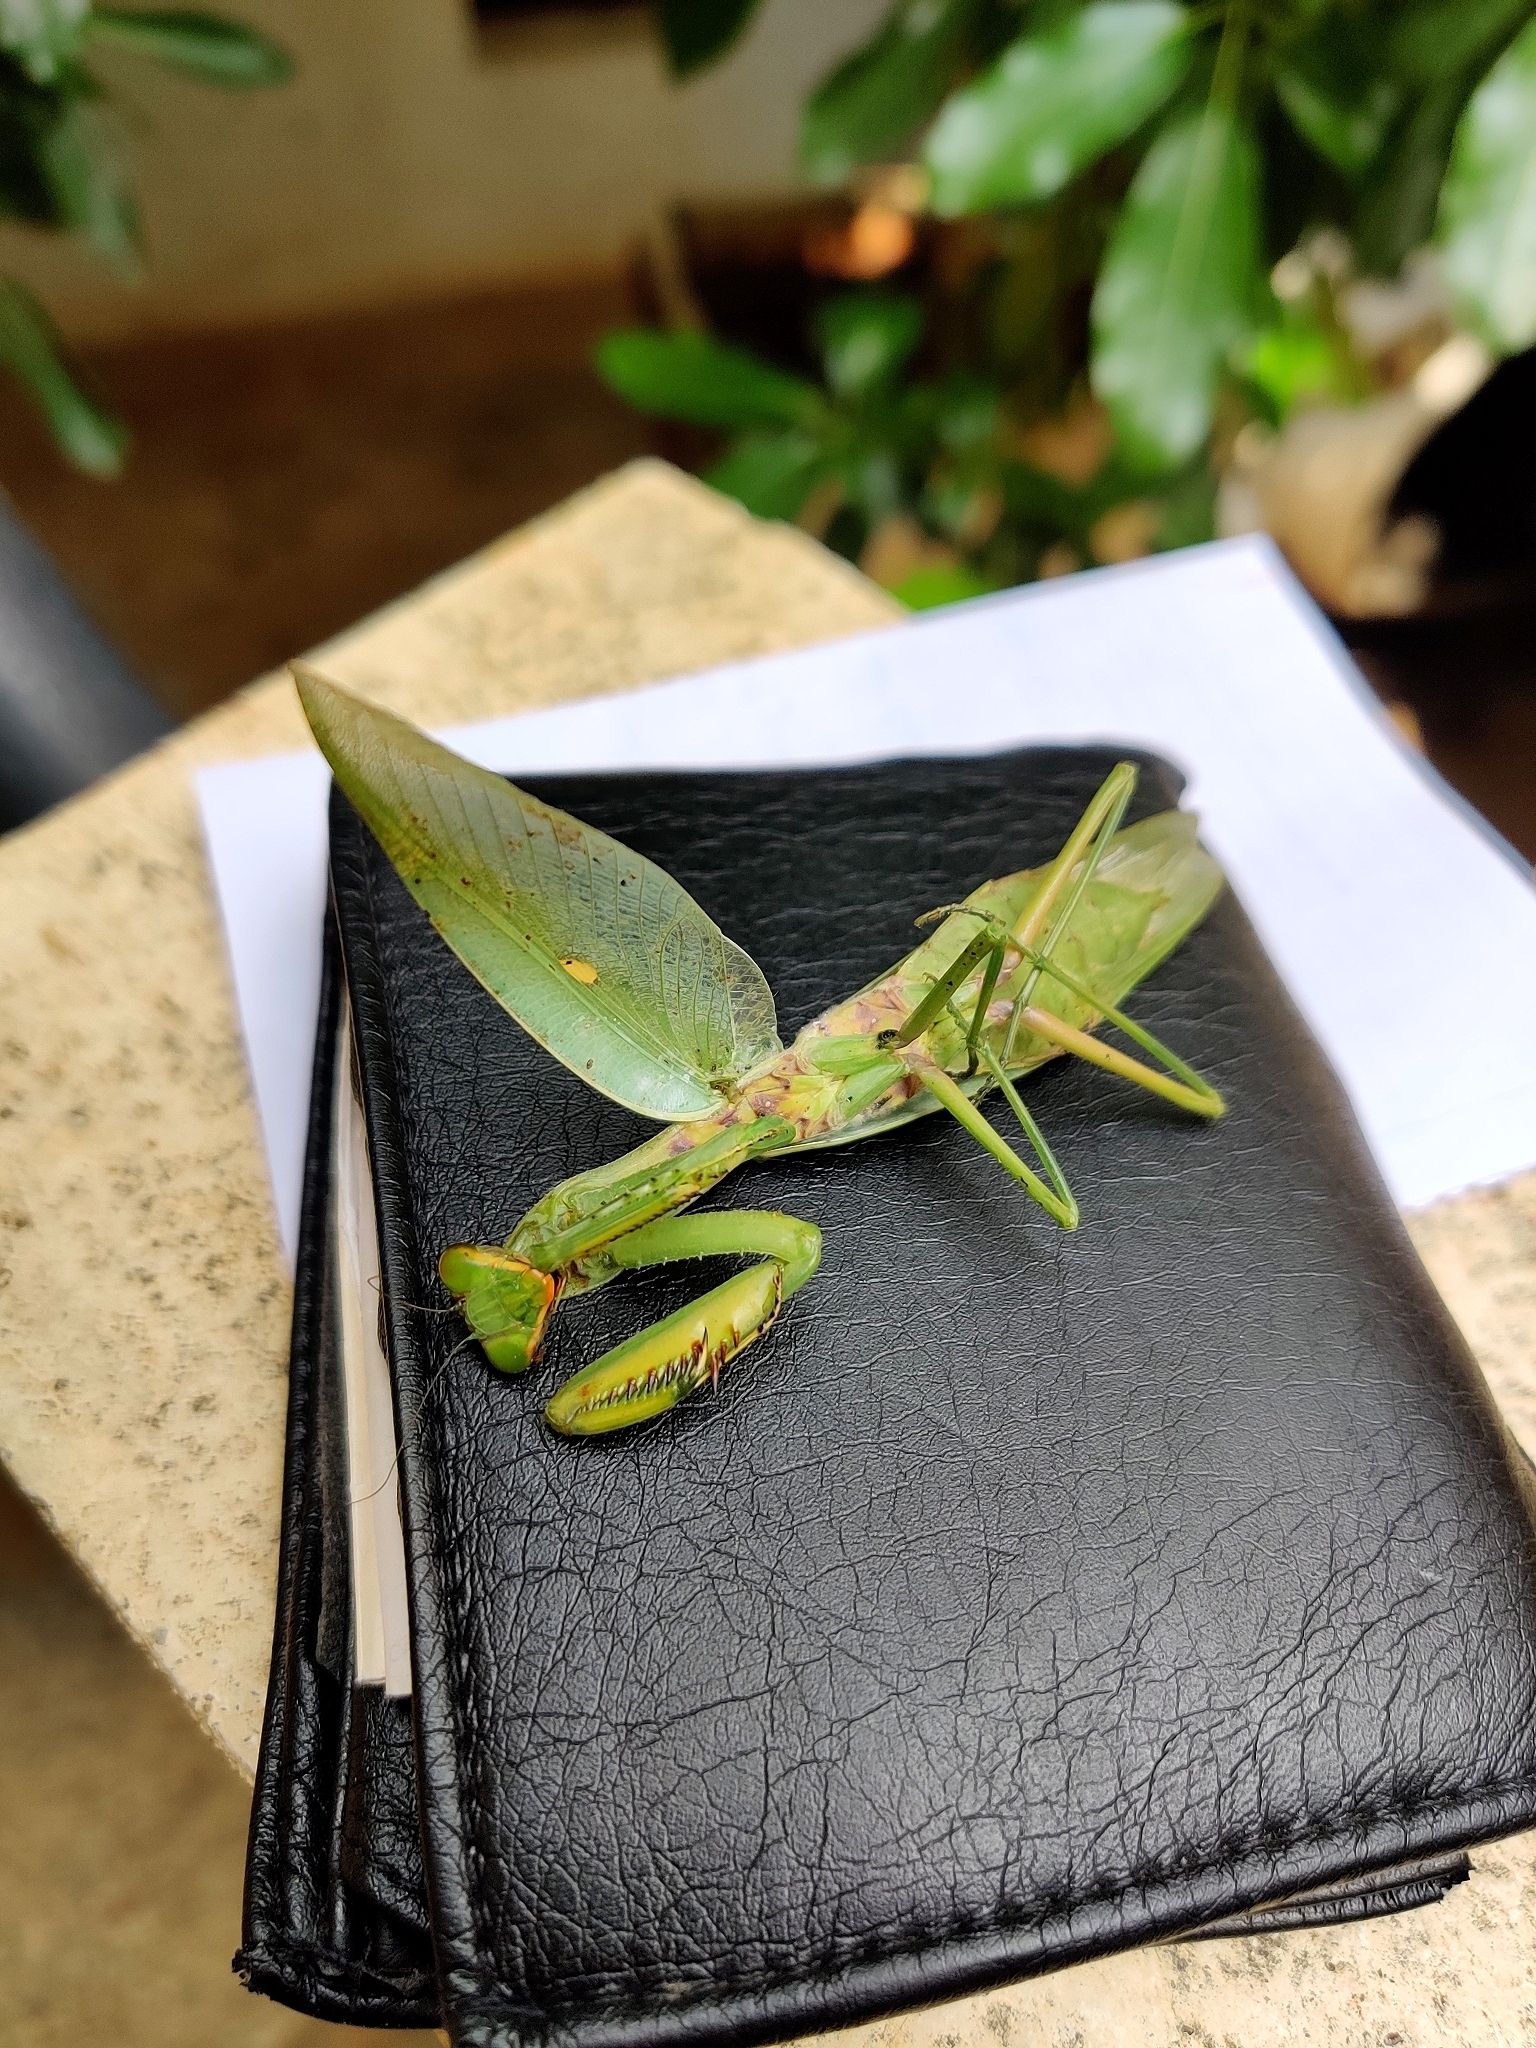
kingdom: Animalia
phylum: Arthropoda
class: Insecta
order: Mantodea
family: Mantidae
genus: Hierodula
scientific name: Hierodula tenuidentata
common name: Giant asian mantis
